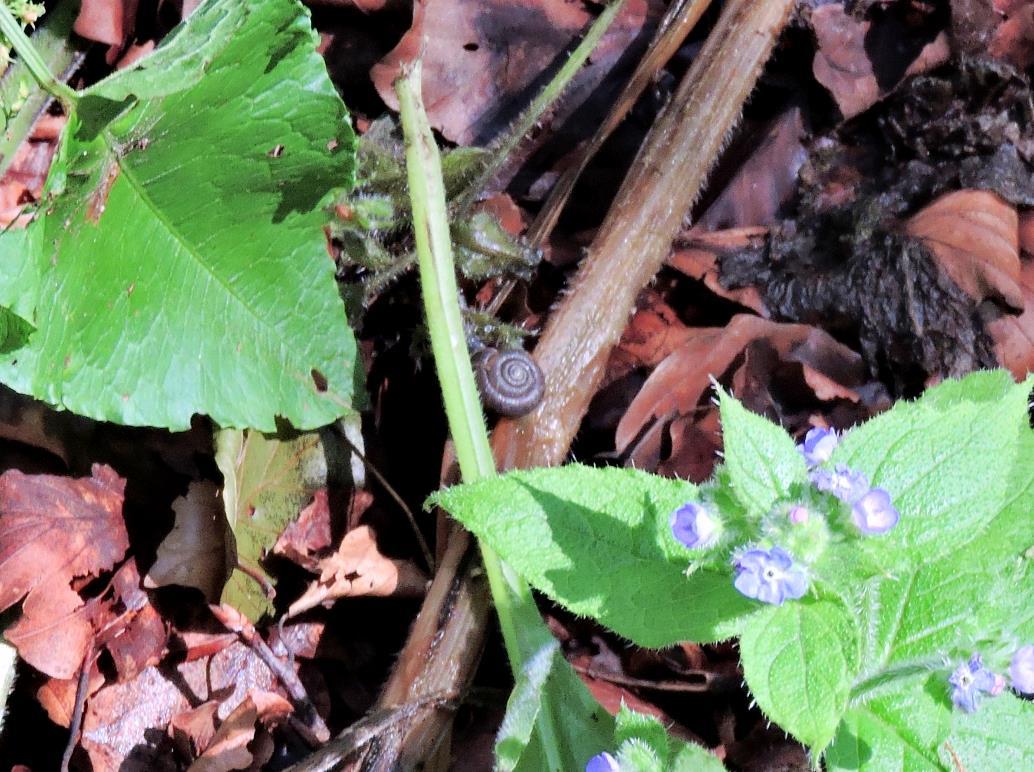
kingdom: Animalia
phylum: Mollusca
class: Gastropoda
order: Stylommatophora
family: Hygromiidae
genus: Trochulus
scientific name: Trochulus hispidus
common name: Hairy snail
